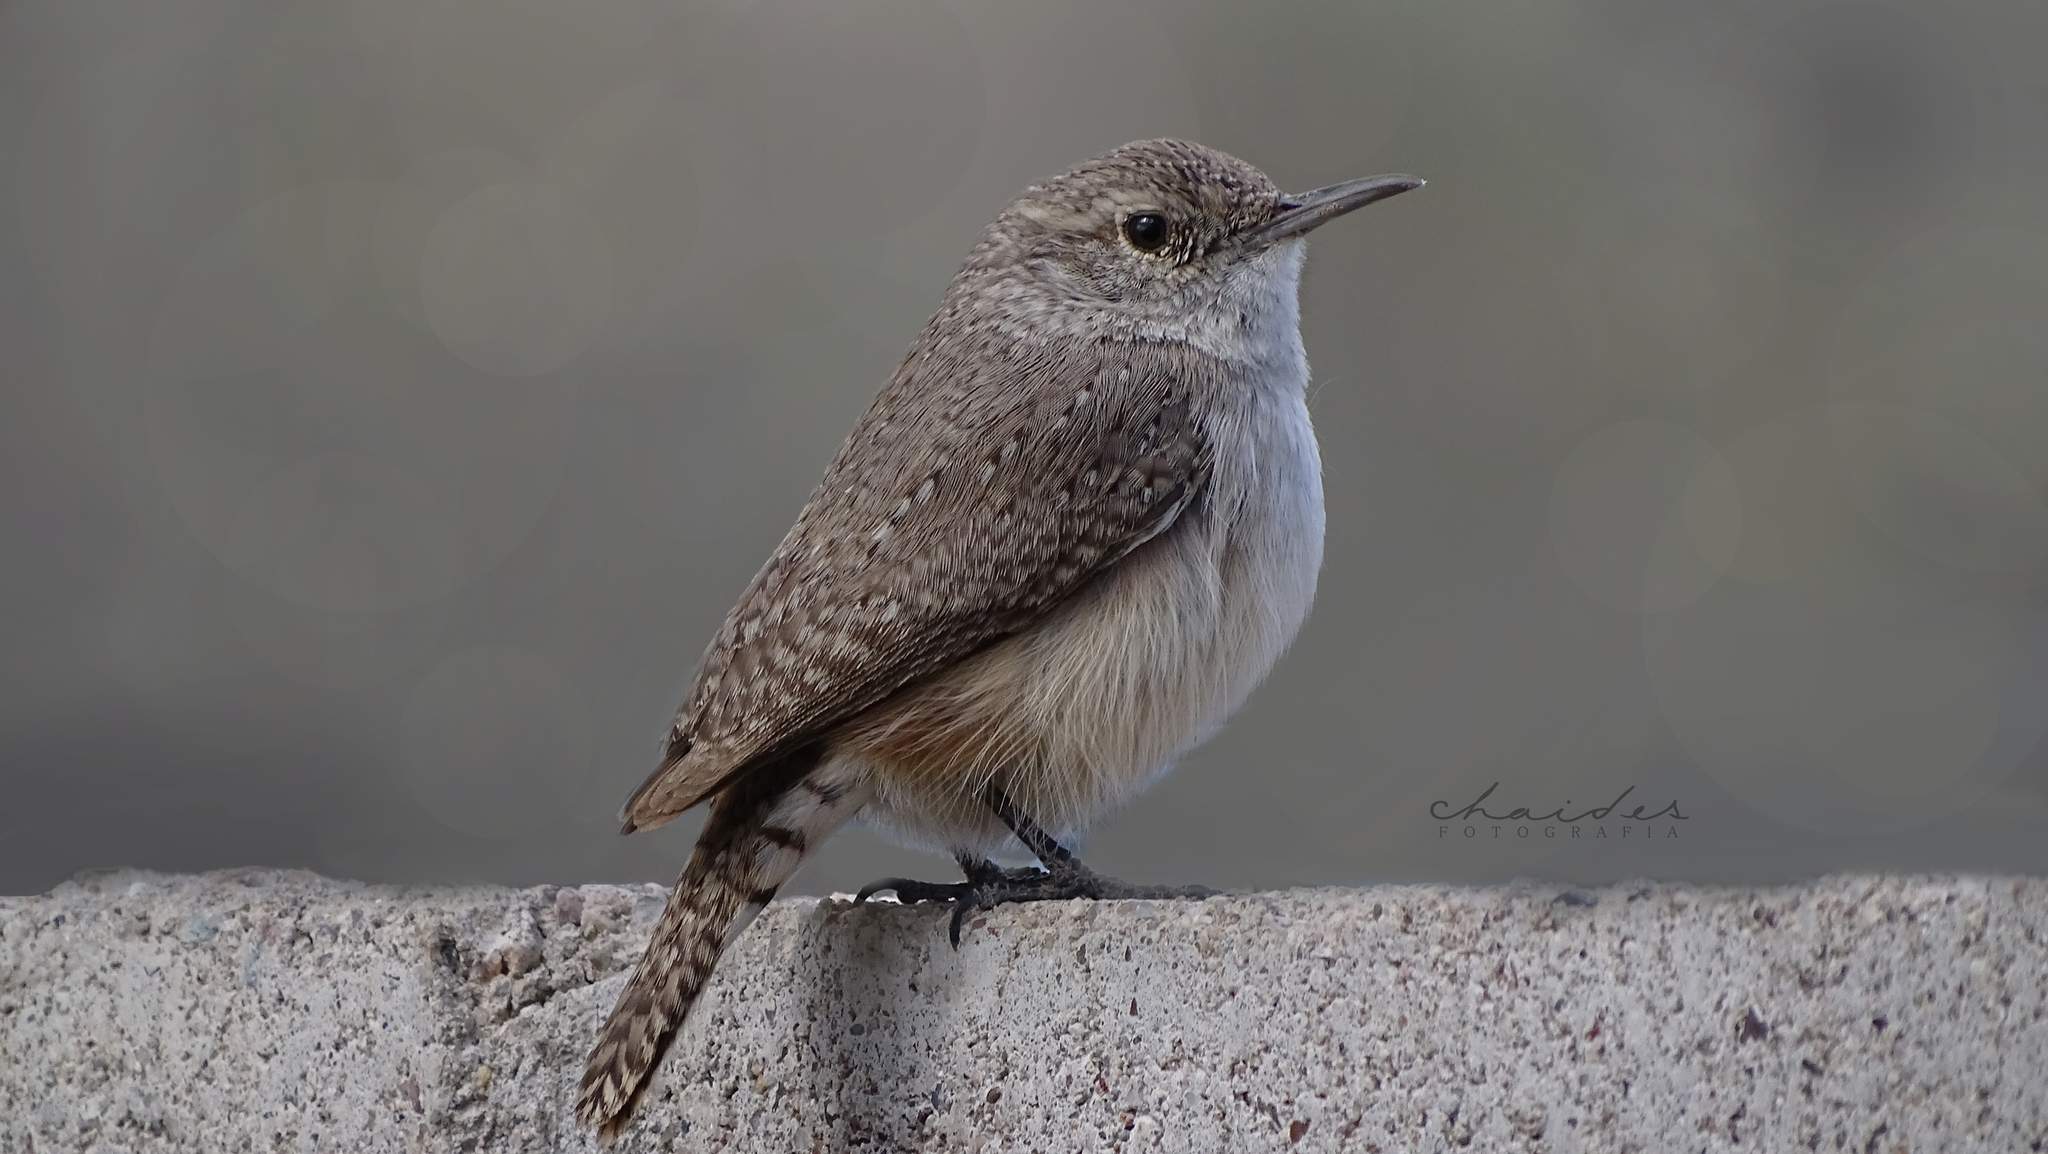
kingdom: Animalia
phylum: Chordata
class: Aves
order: Passeriformes
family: Troglodytidae
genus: Salpinctes
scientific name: Salpinctes obsoletus
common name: Rock wren
